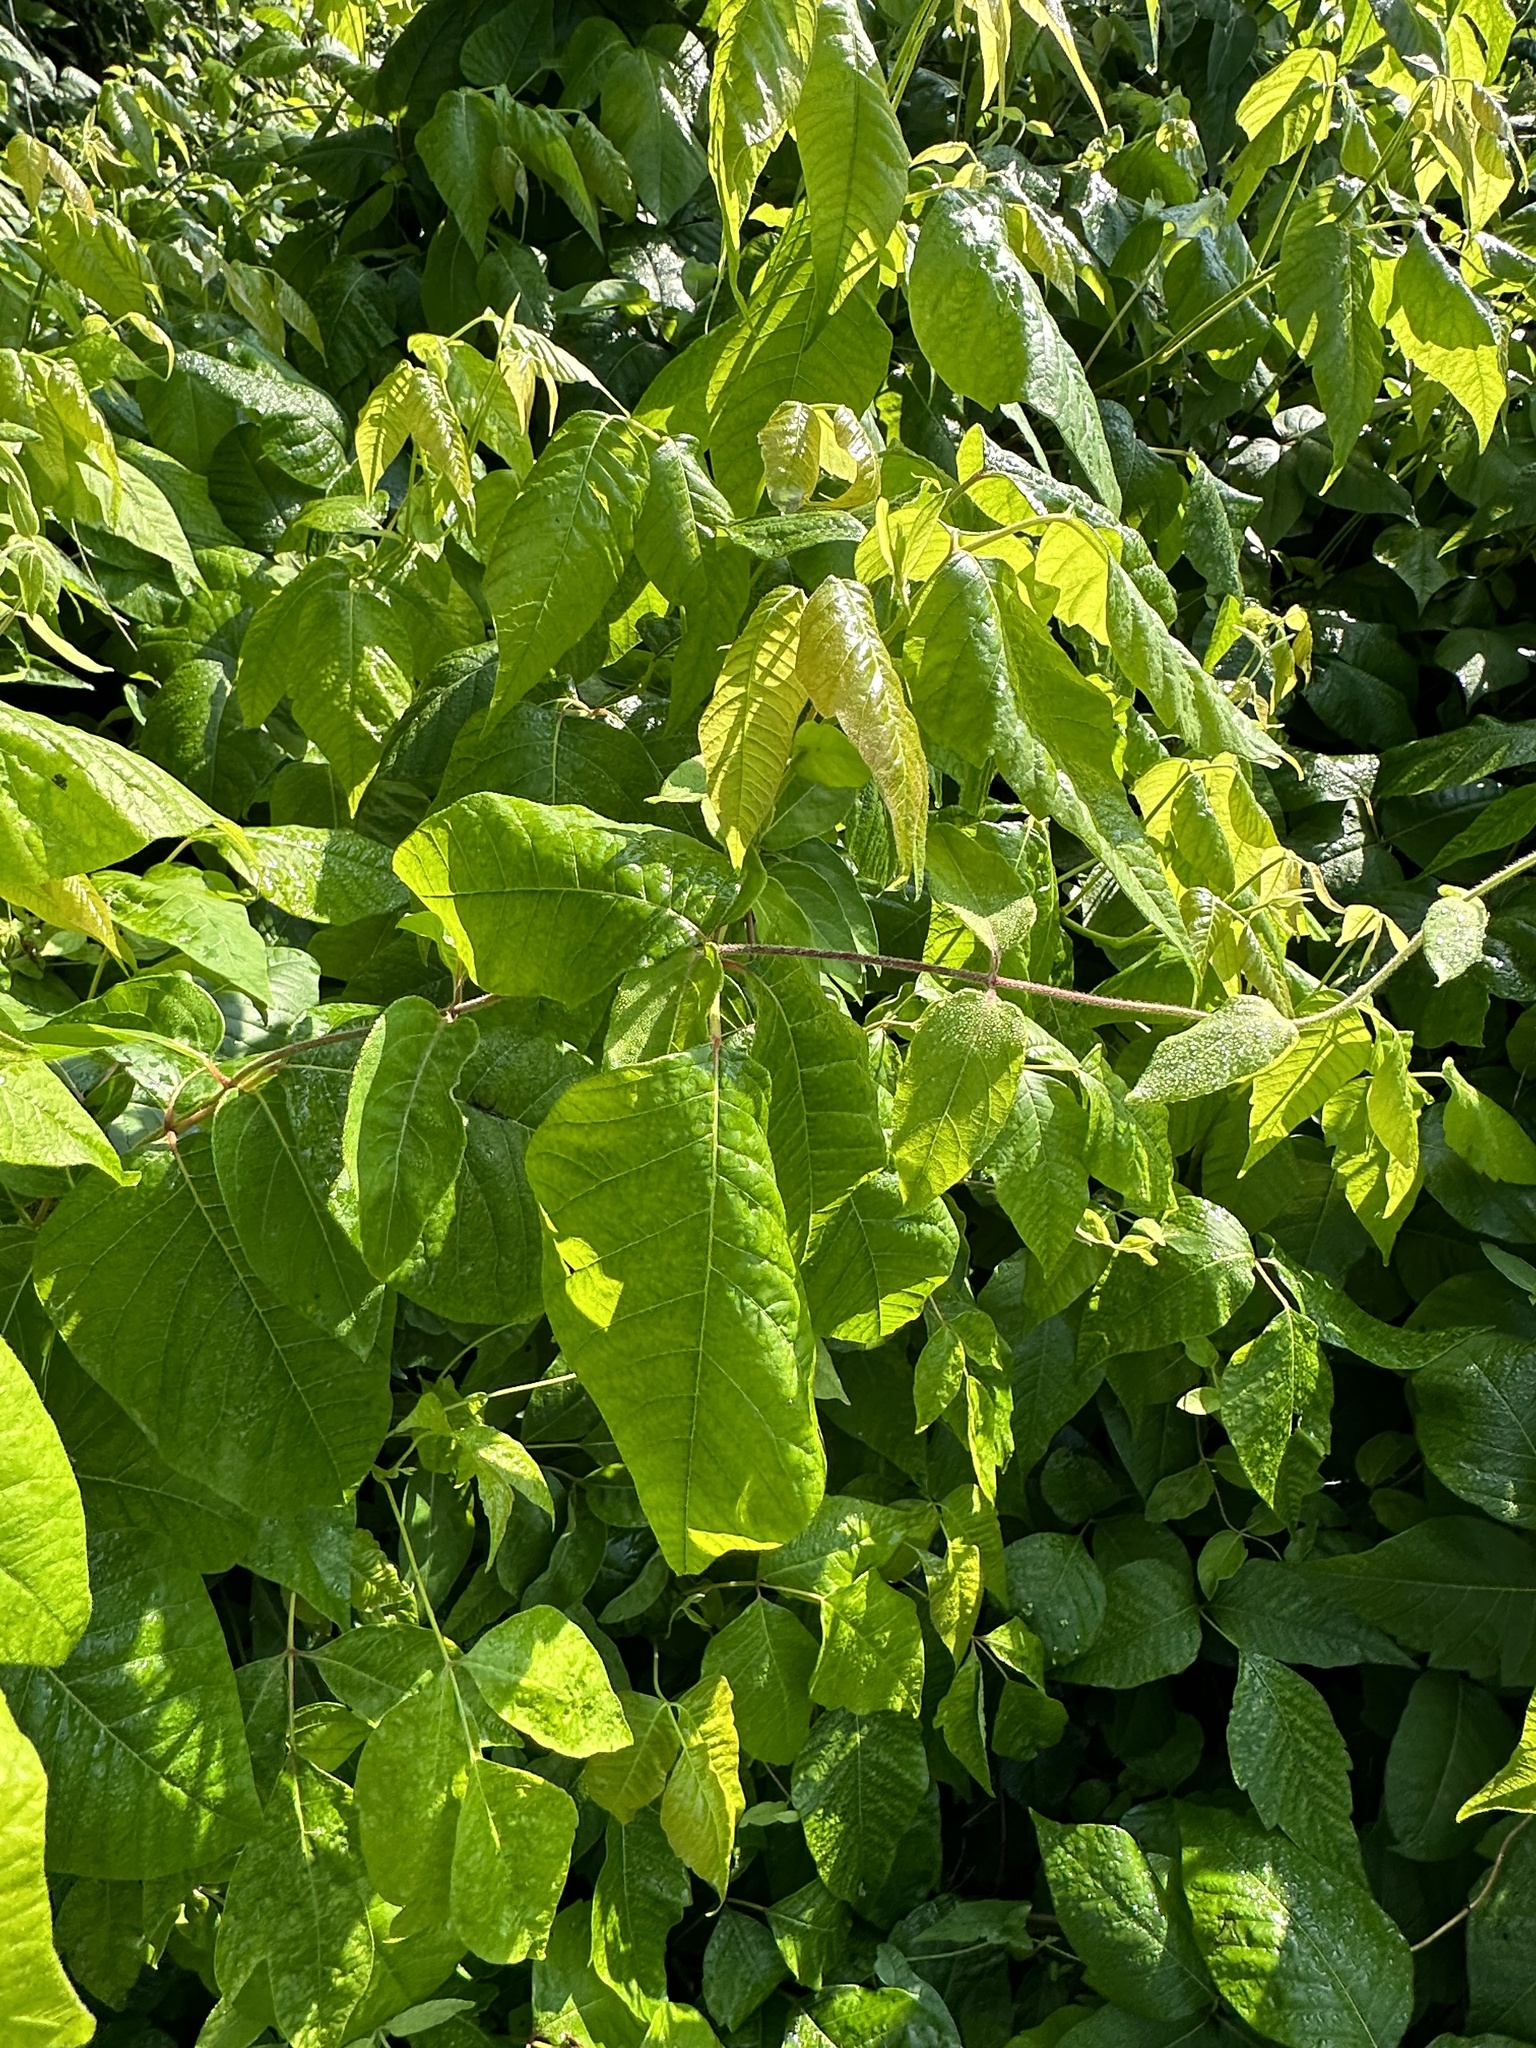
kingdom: Plantae
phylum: Tracheophyta
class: Magnoliopsida
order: Sapindales
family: Anacardiaceae
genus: Toxicodendron
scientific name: Toxicodendron radicans
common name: Poison ivy
